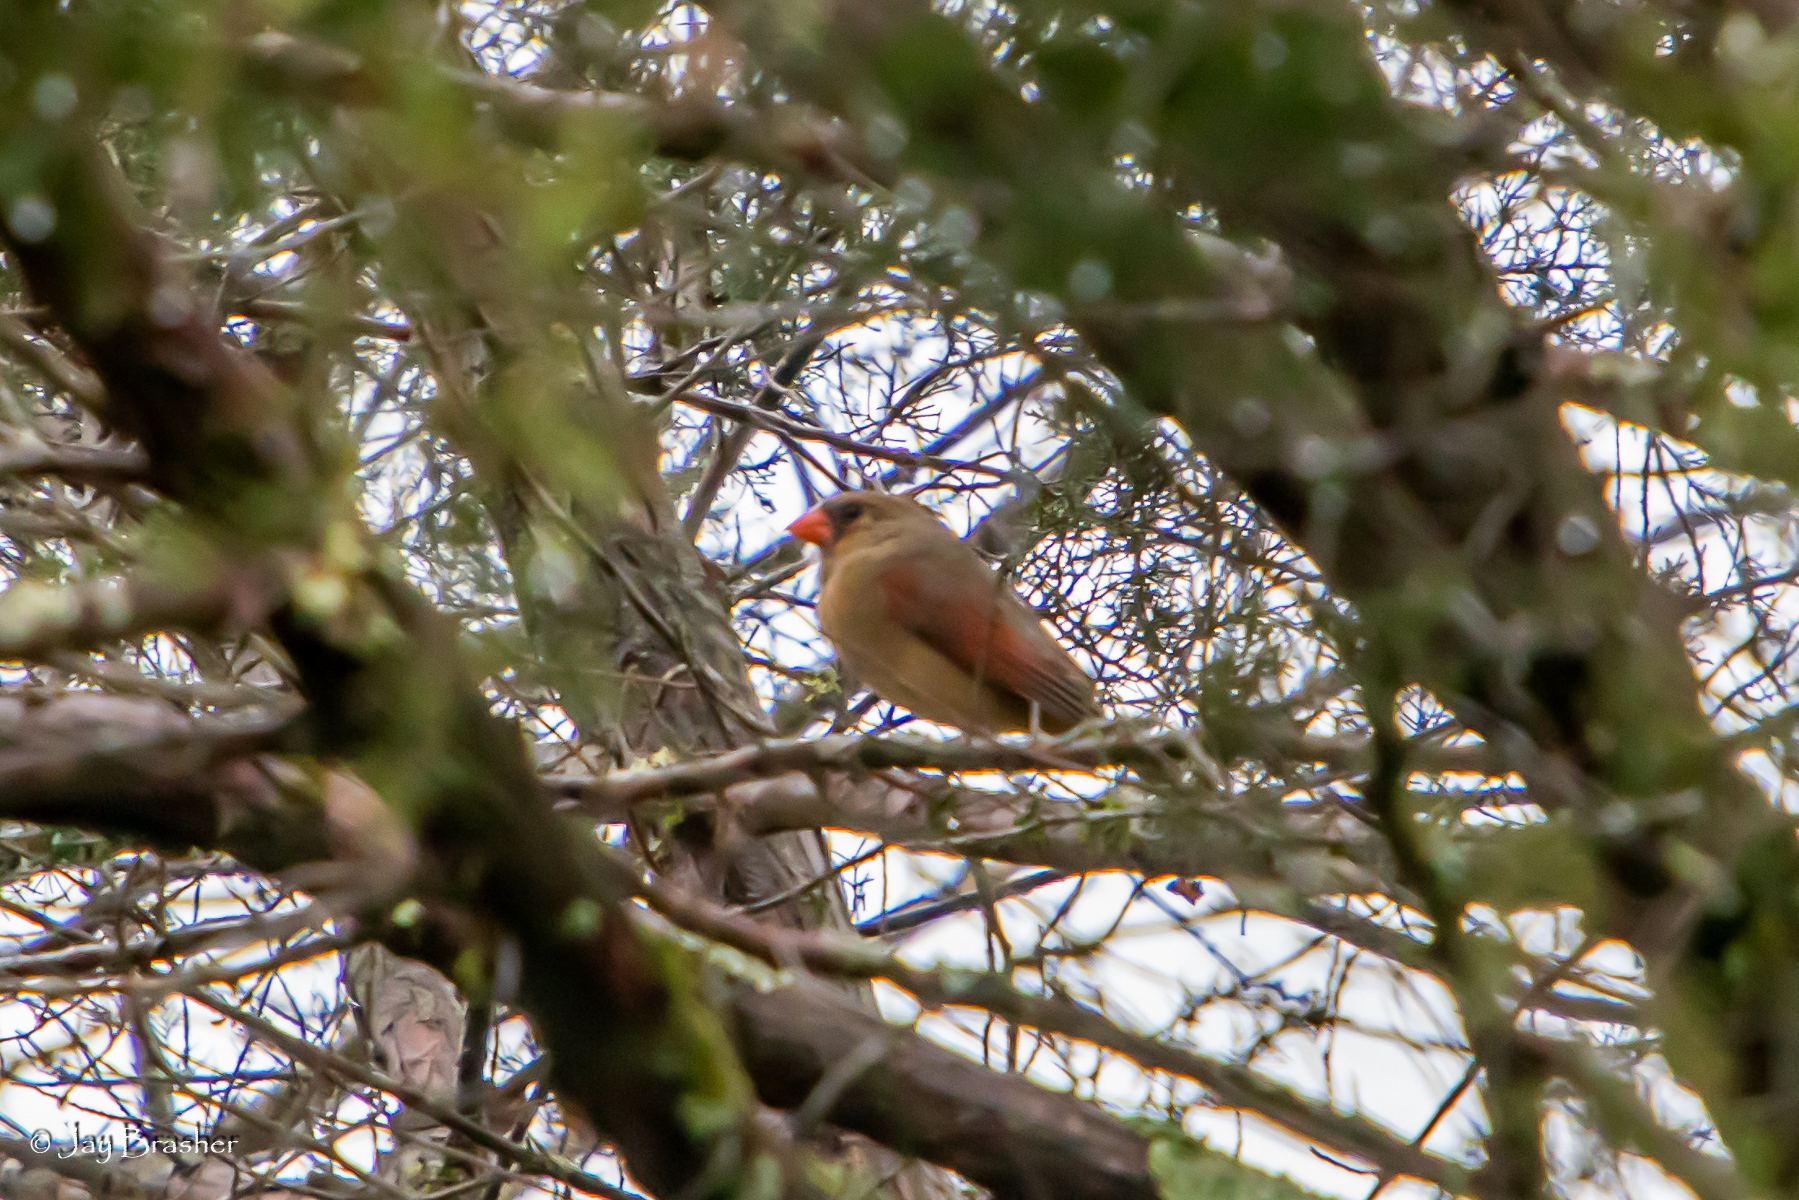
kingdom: Animalia
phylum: Chordata
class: Aves
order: Passeriformes
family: Cardinalidae
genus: Cardinalis
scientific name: Cardinalis cardinalis
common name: Northern cardinal
